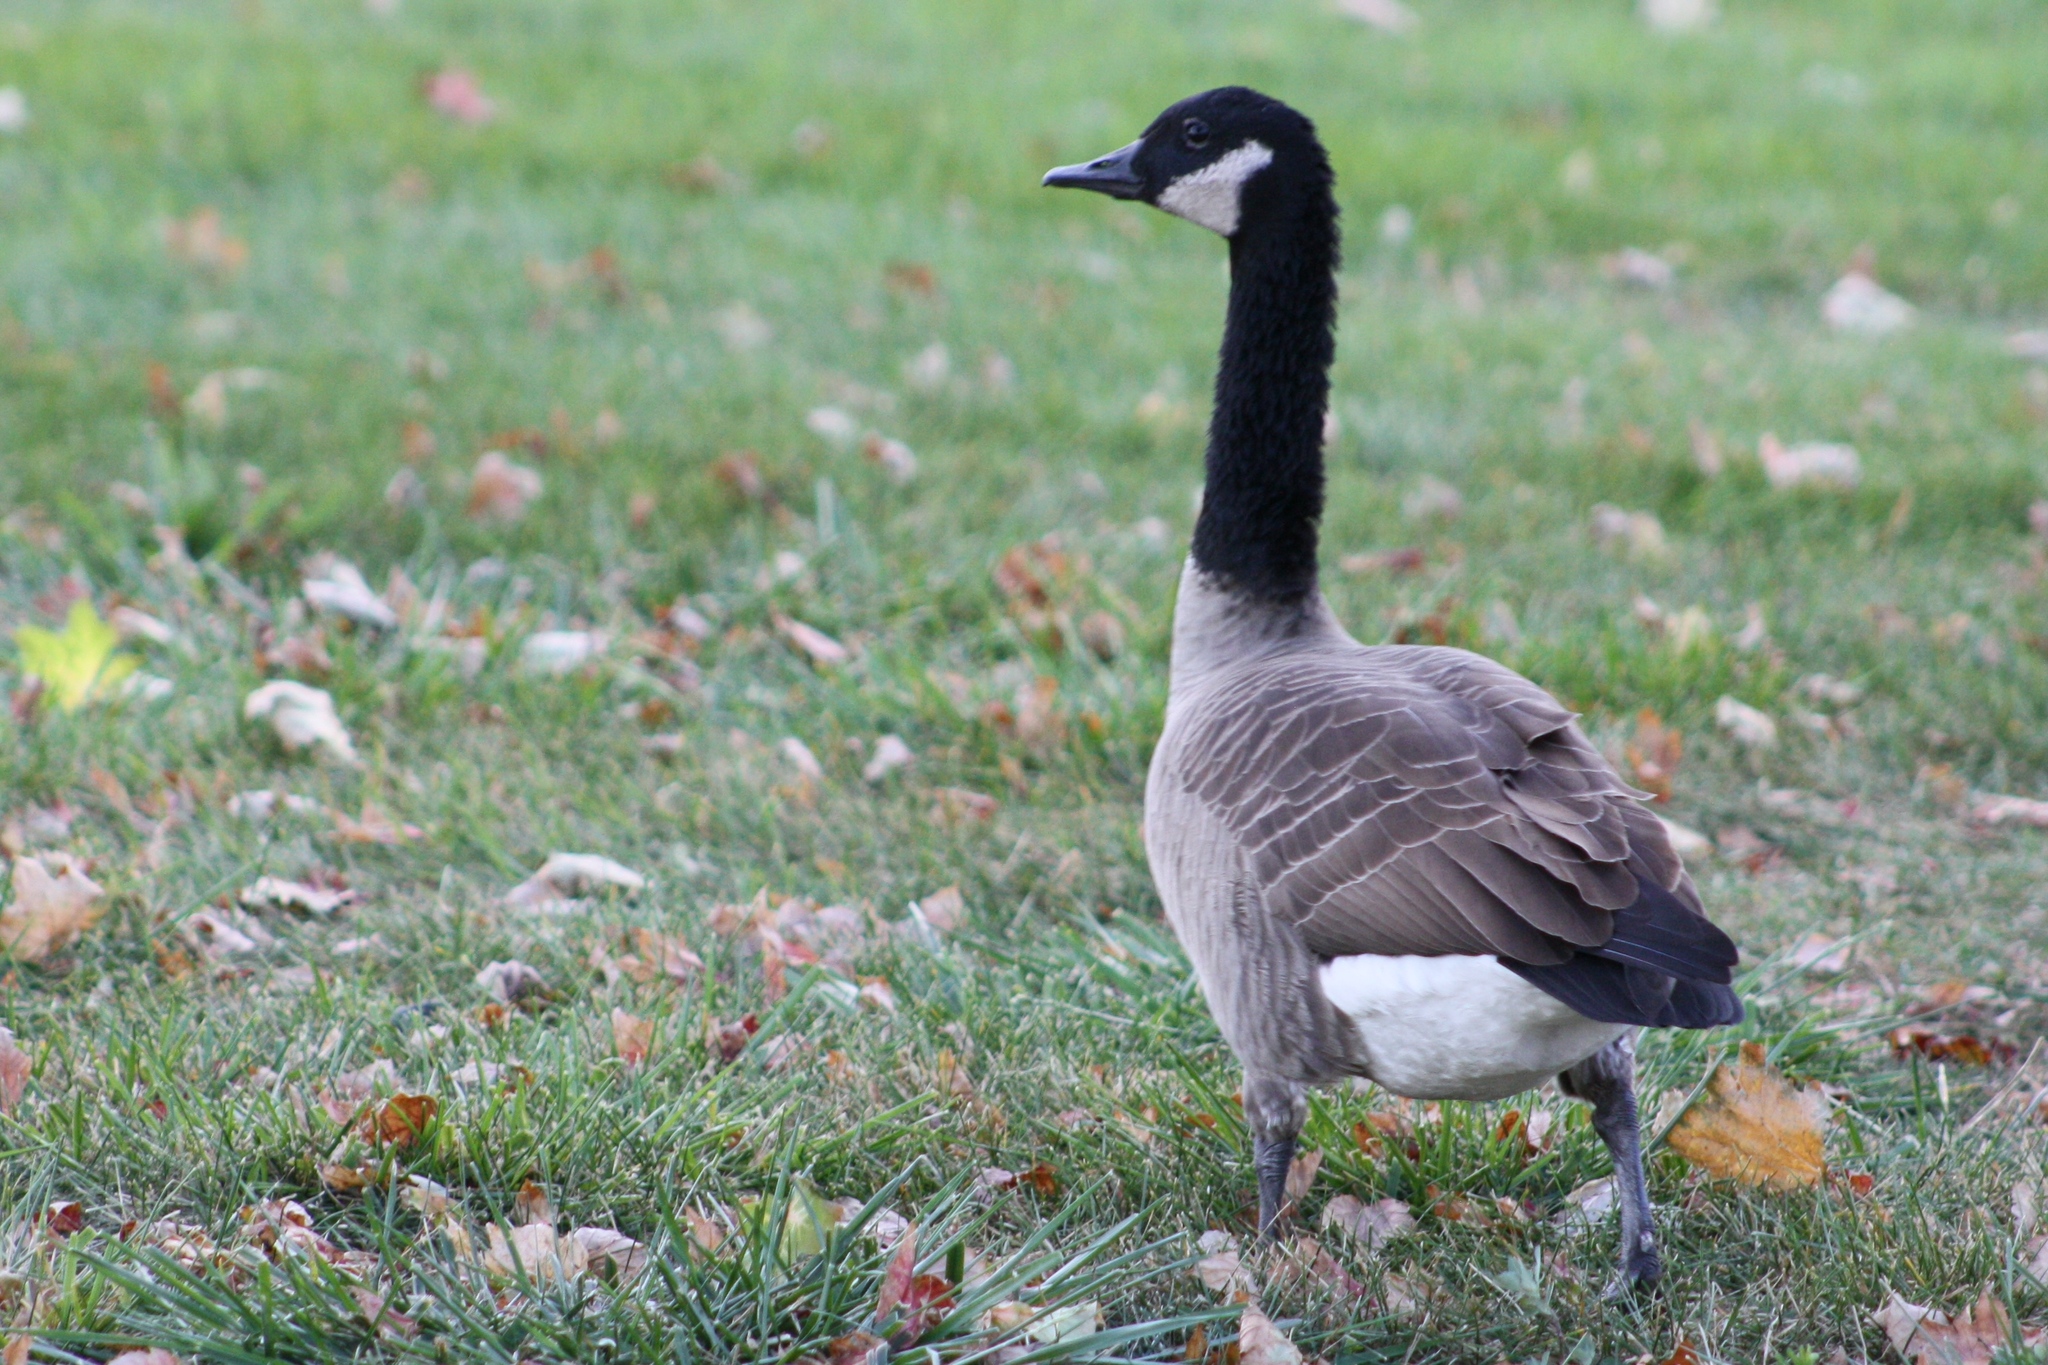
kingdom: Animalia
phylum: Chordata
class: Aves
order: Anseriformes
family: Anatidae
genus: Branta
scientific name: Branta canadensis
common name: Canada goose
